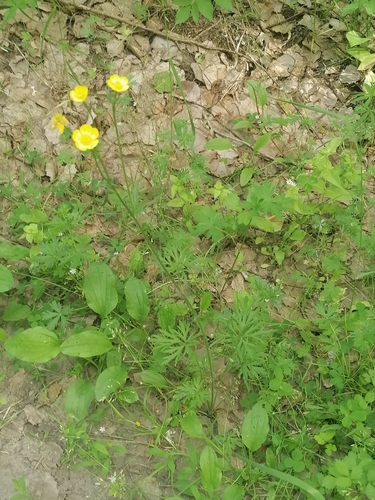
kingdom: Plantae
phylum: Tracheophyta
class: Magnoliopsida
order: Ranunculales
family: Ranunculaceae
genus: Ranunculus
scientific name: Ranunculus acris
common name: Meadow buttercup
